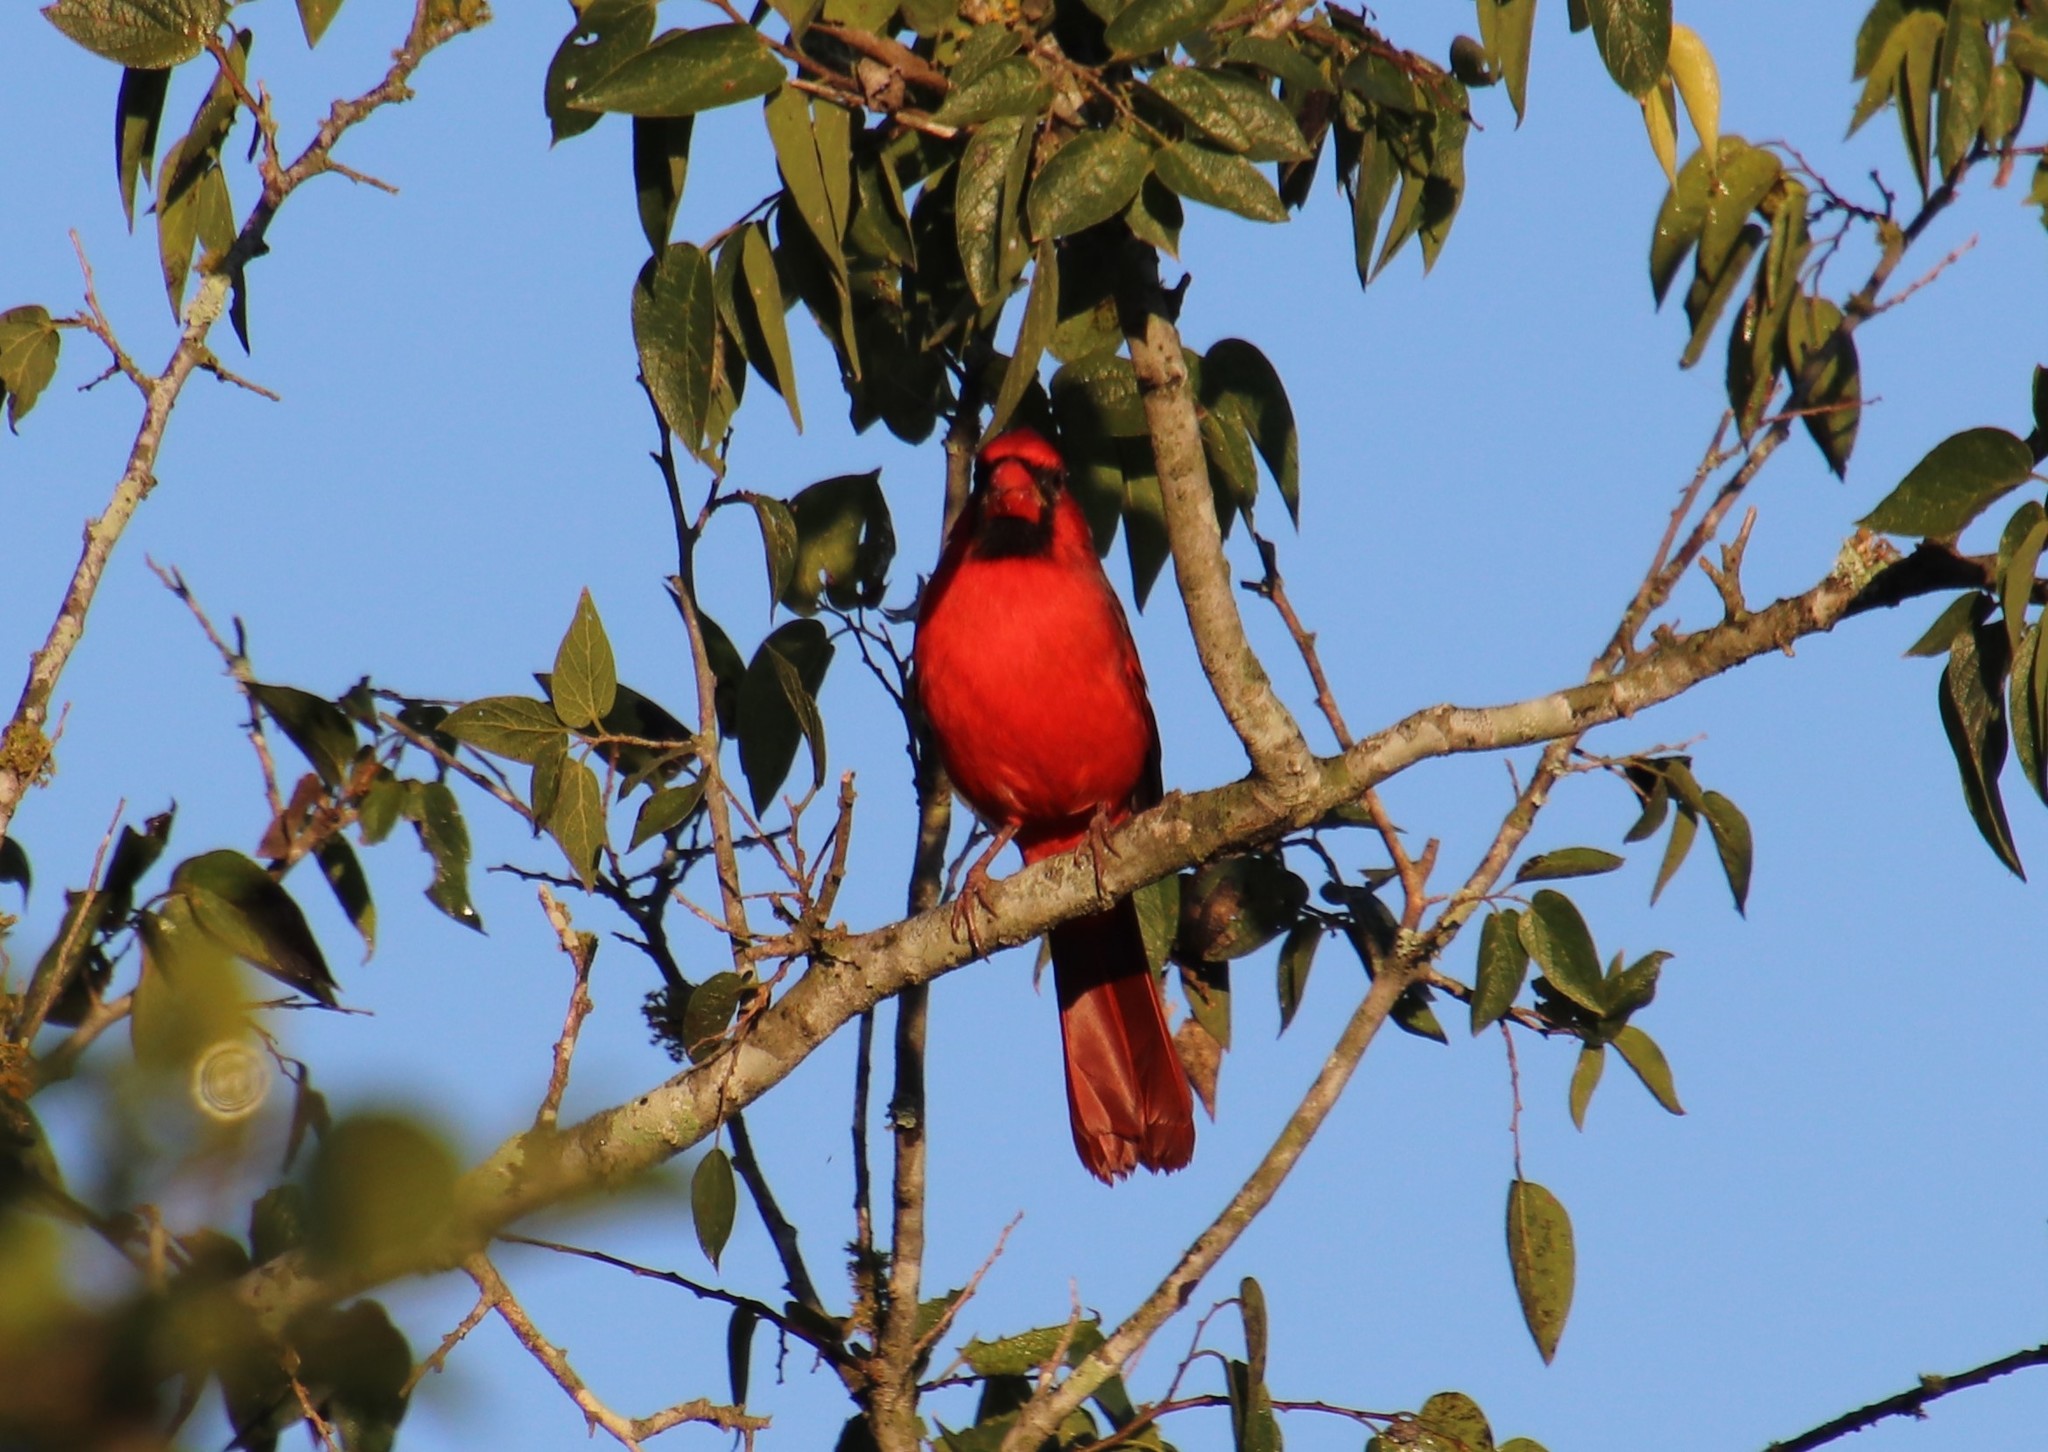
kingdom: Animalia
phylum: Chordata
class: Aves
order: Passeriformes
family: Cardinalidae
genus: Cardinalis
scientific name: Cardinalis cardinalis
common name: Northern cardinal
